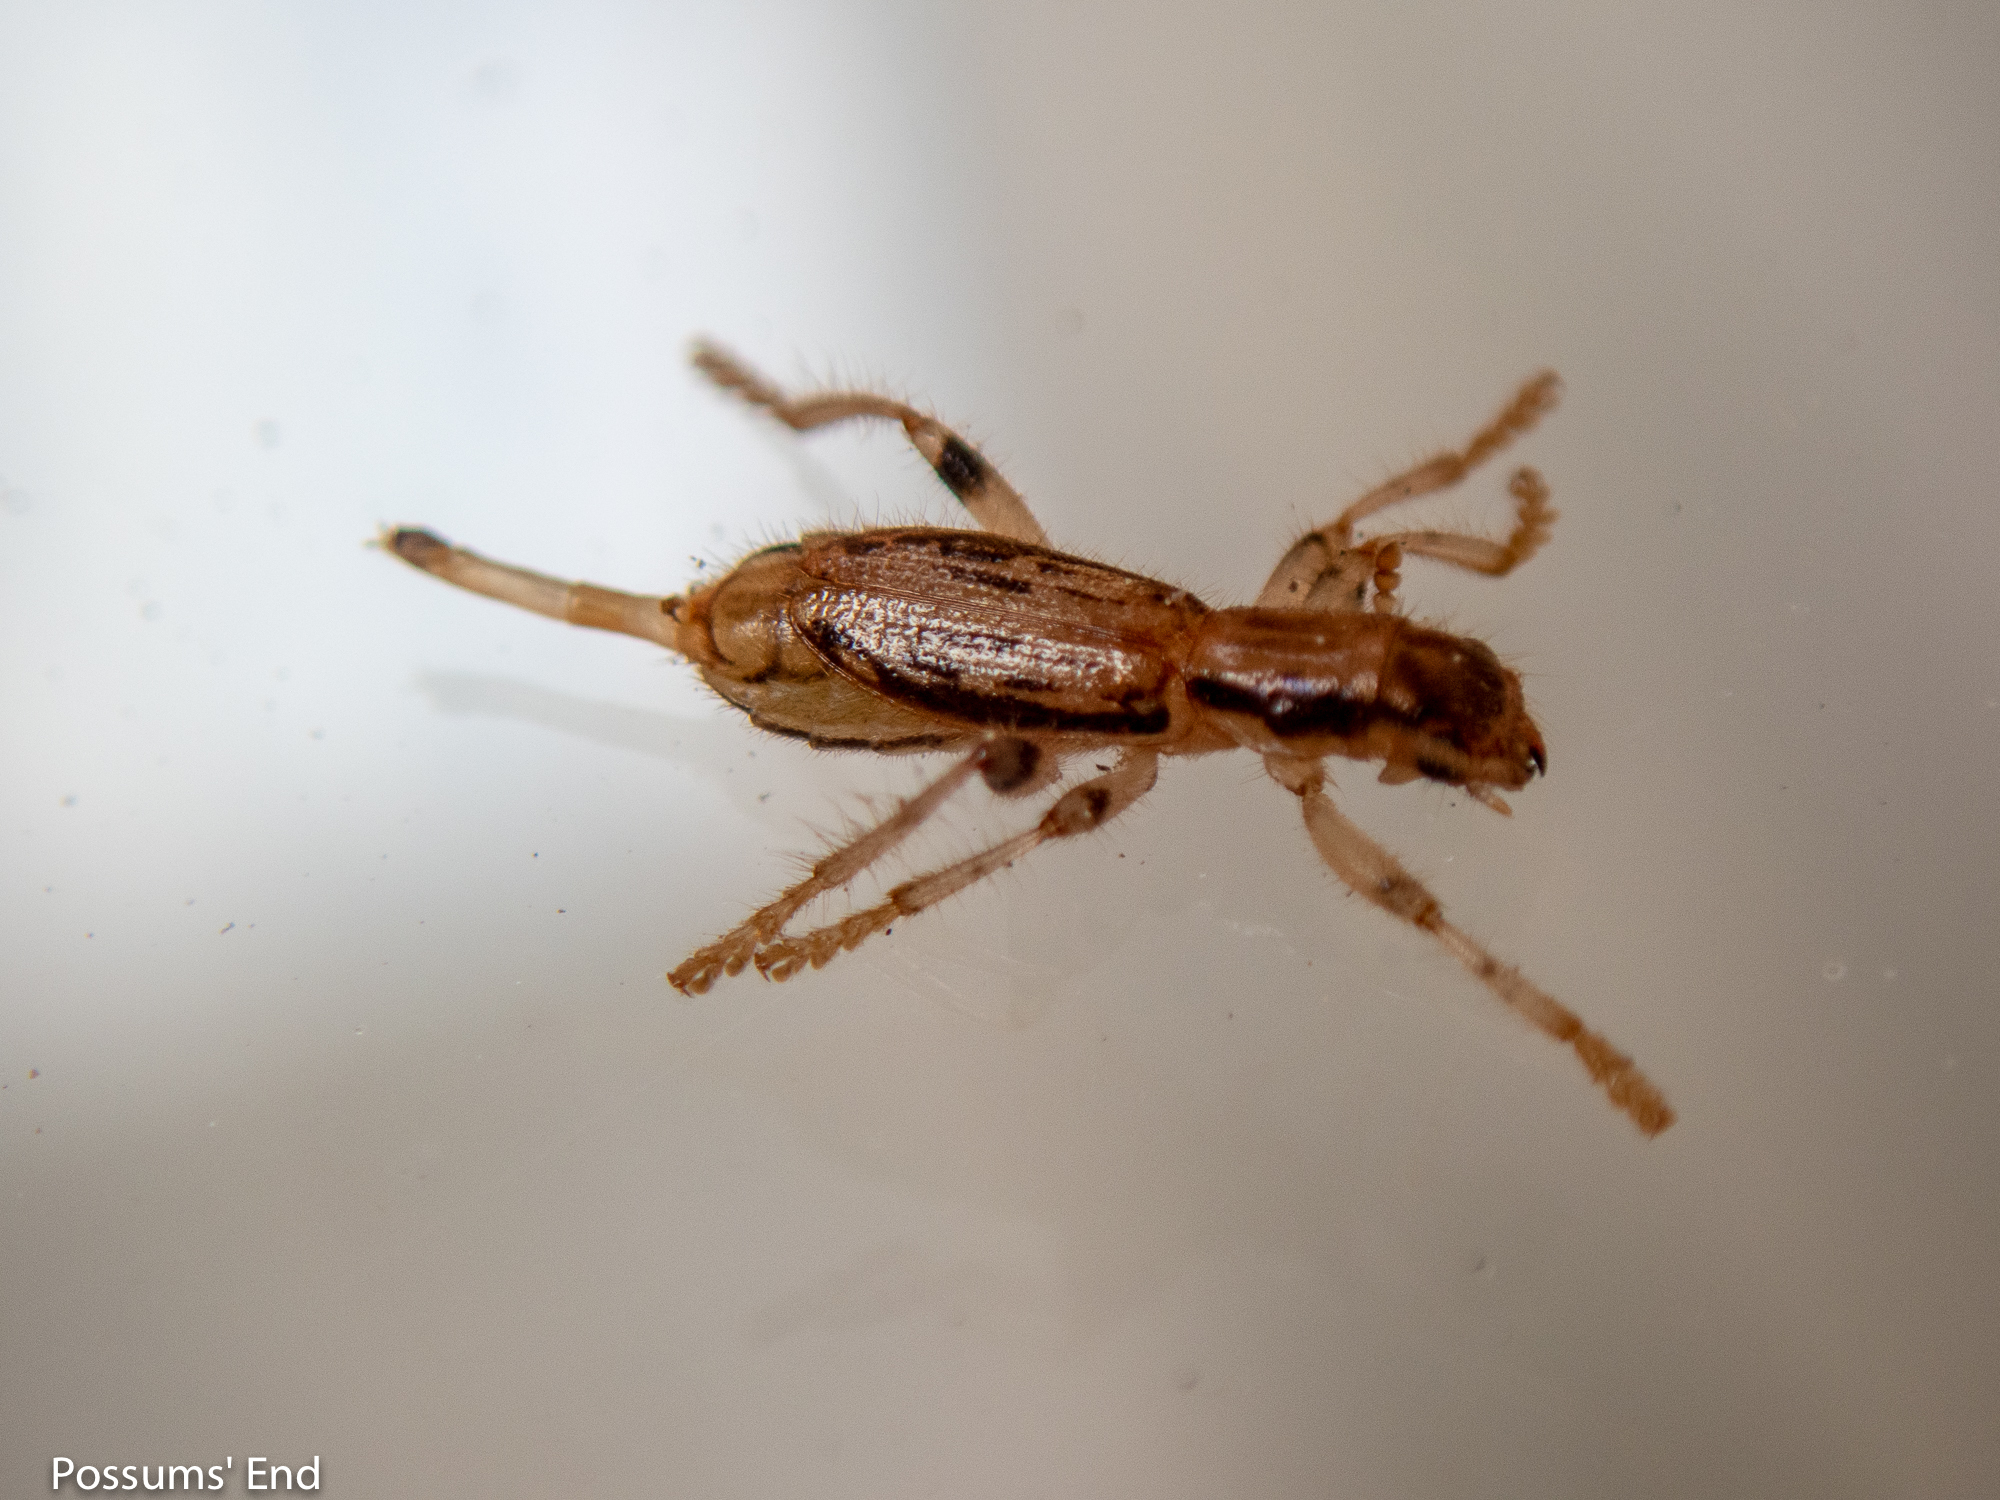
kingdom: Animalia
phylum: Arthropoda
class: Insecta
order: Coleoptera
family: Cleridae
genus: Lemidia
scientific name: Lemidia
